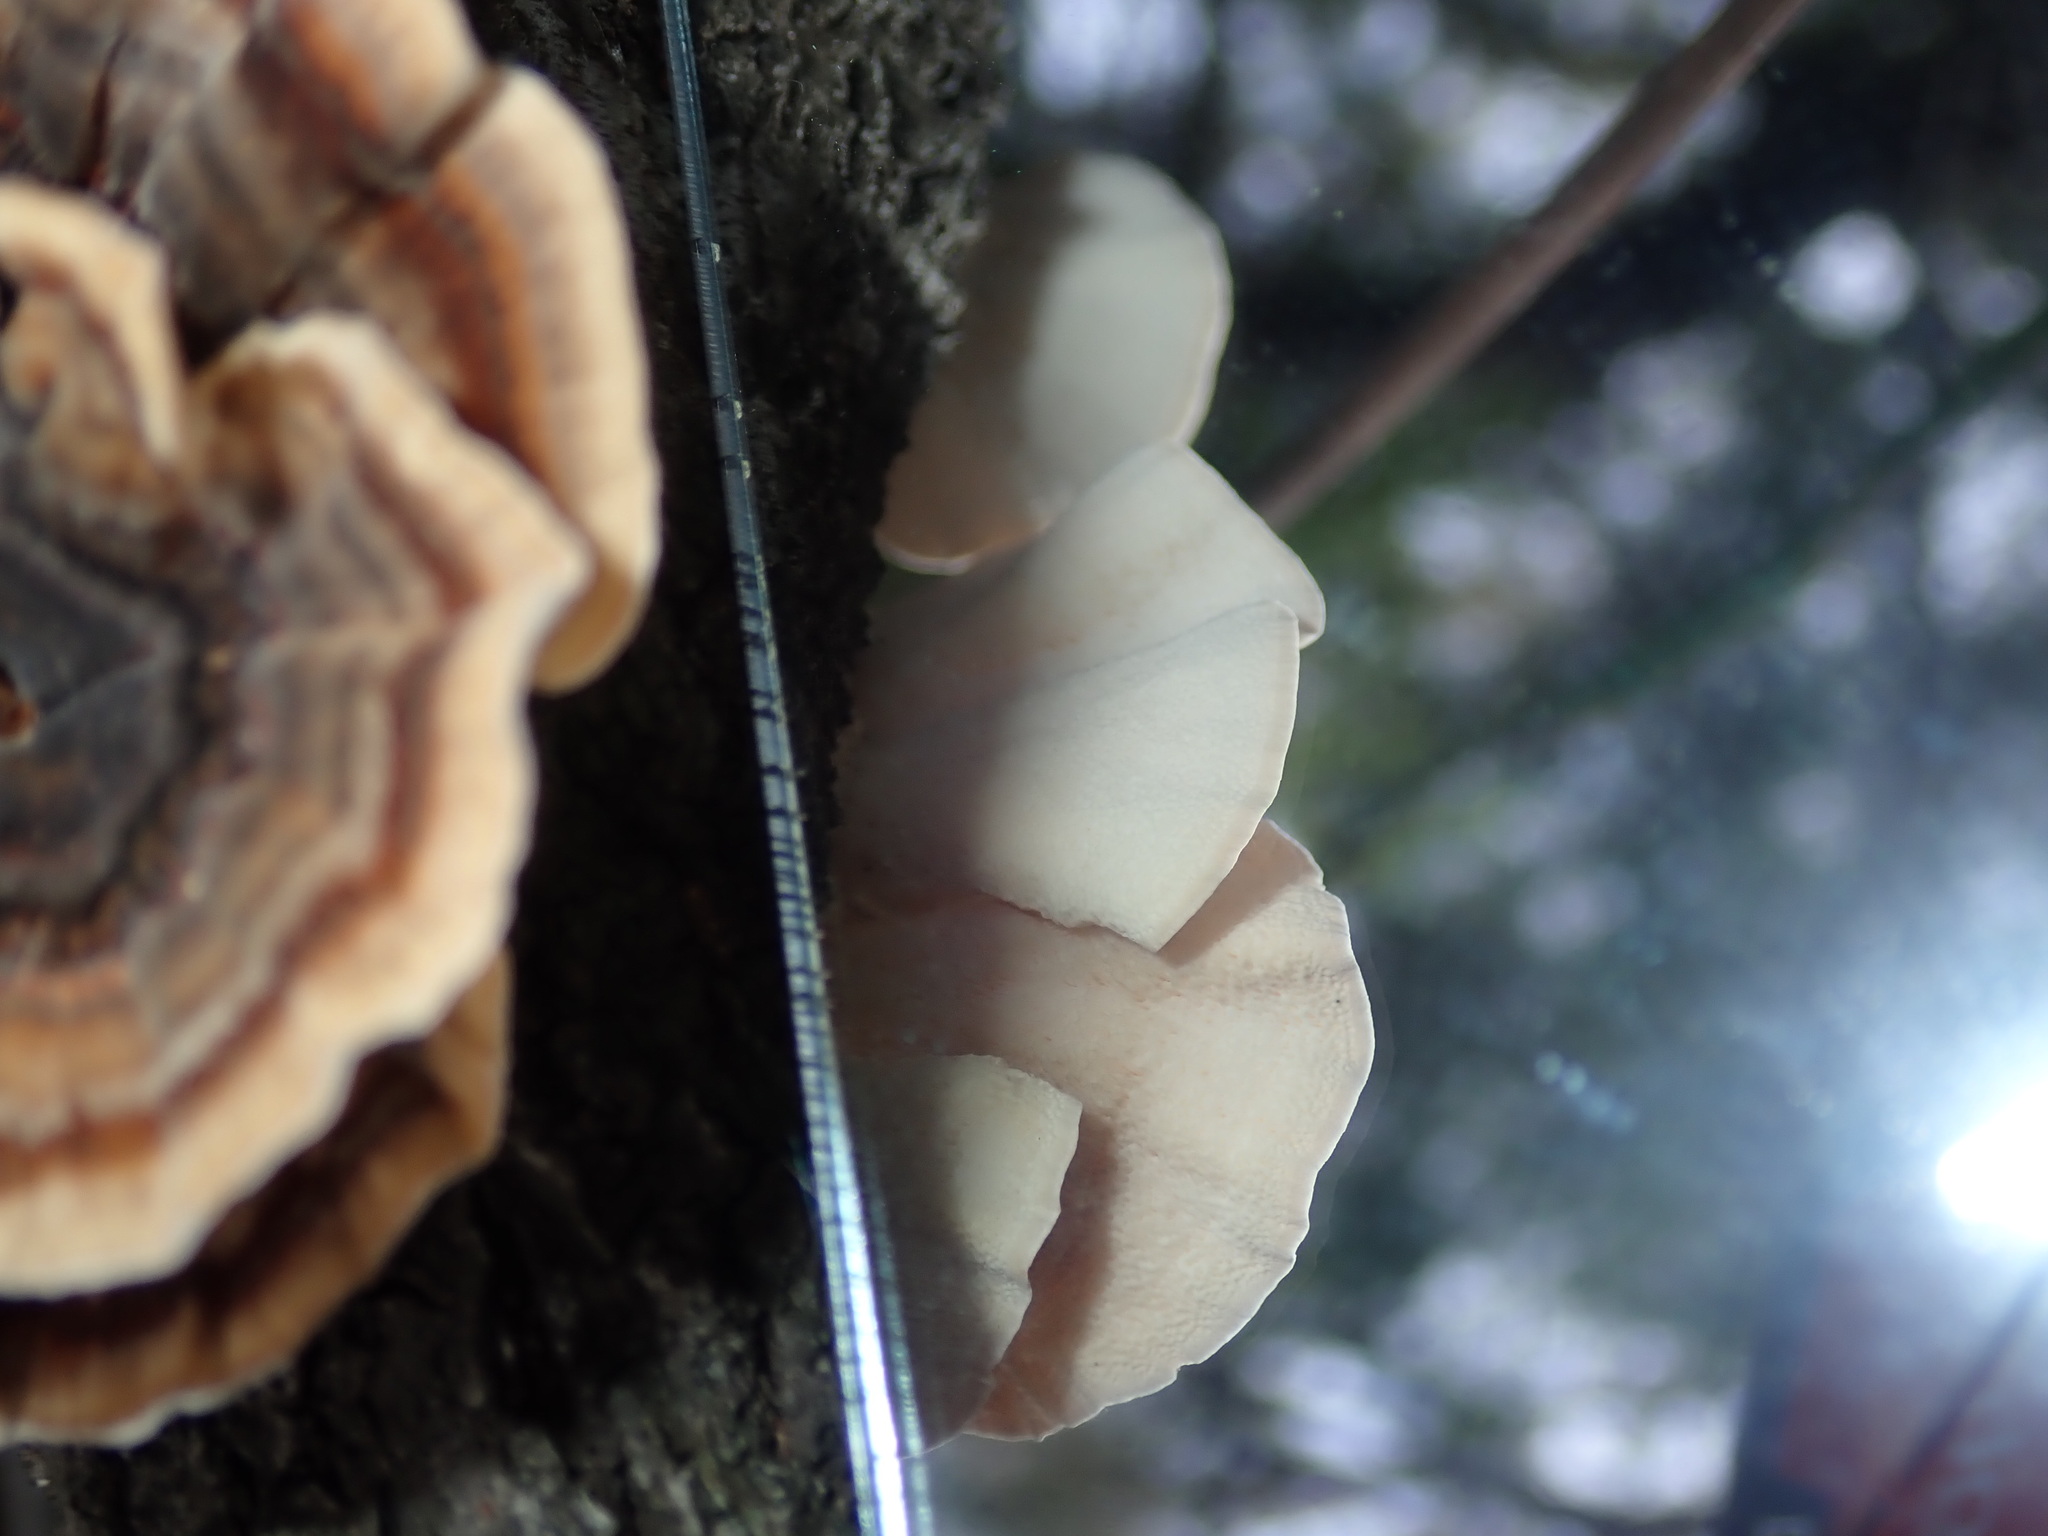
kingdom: Fungi
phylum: Basidiomycota
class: Agaricomycetes
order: Polyporales
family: Polyporaceae
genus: Trametes
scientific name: Trametes versicolor
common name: Turkeytail
